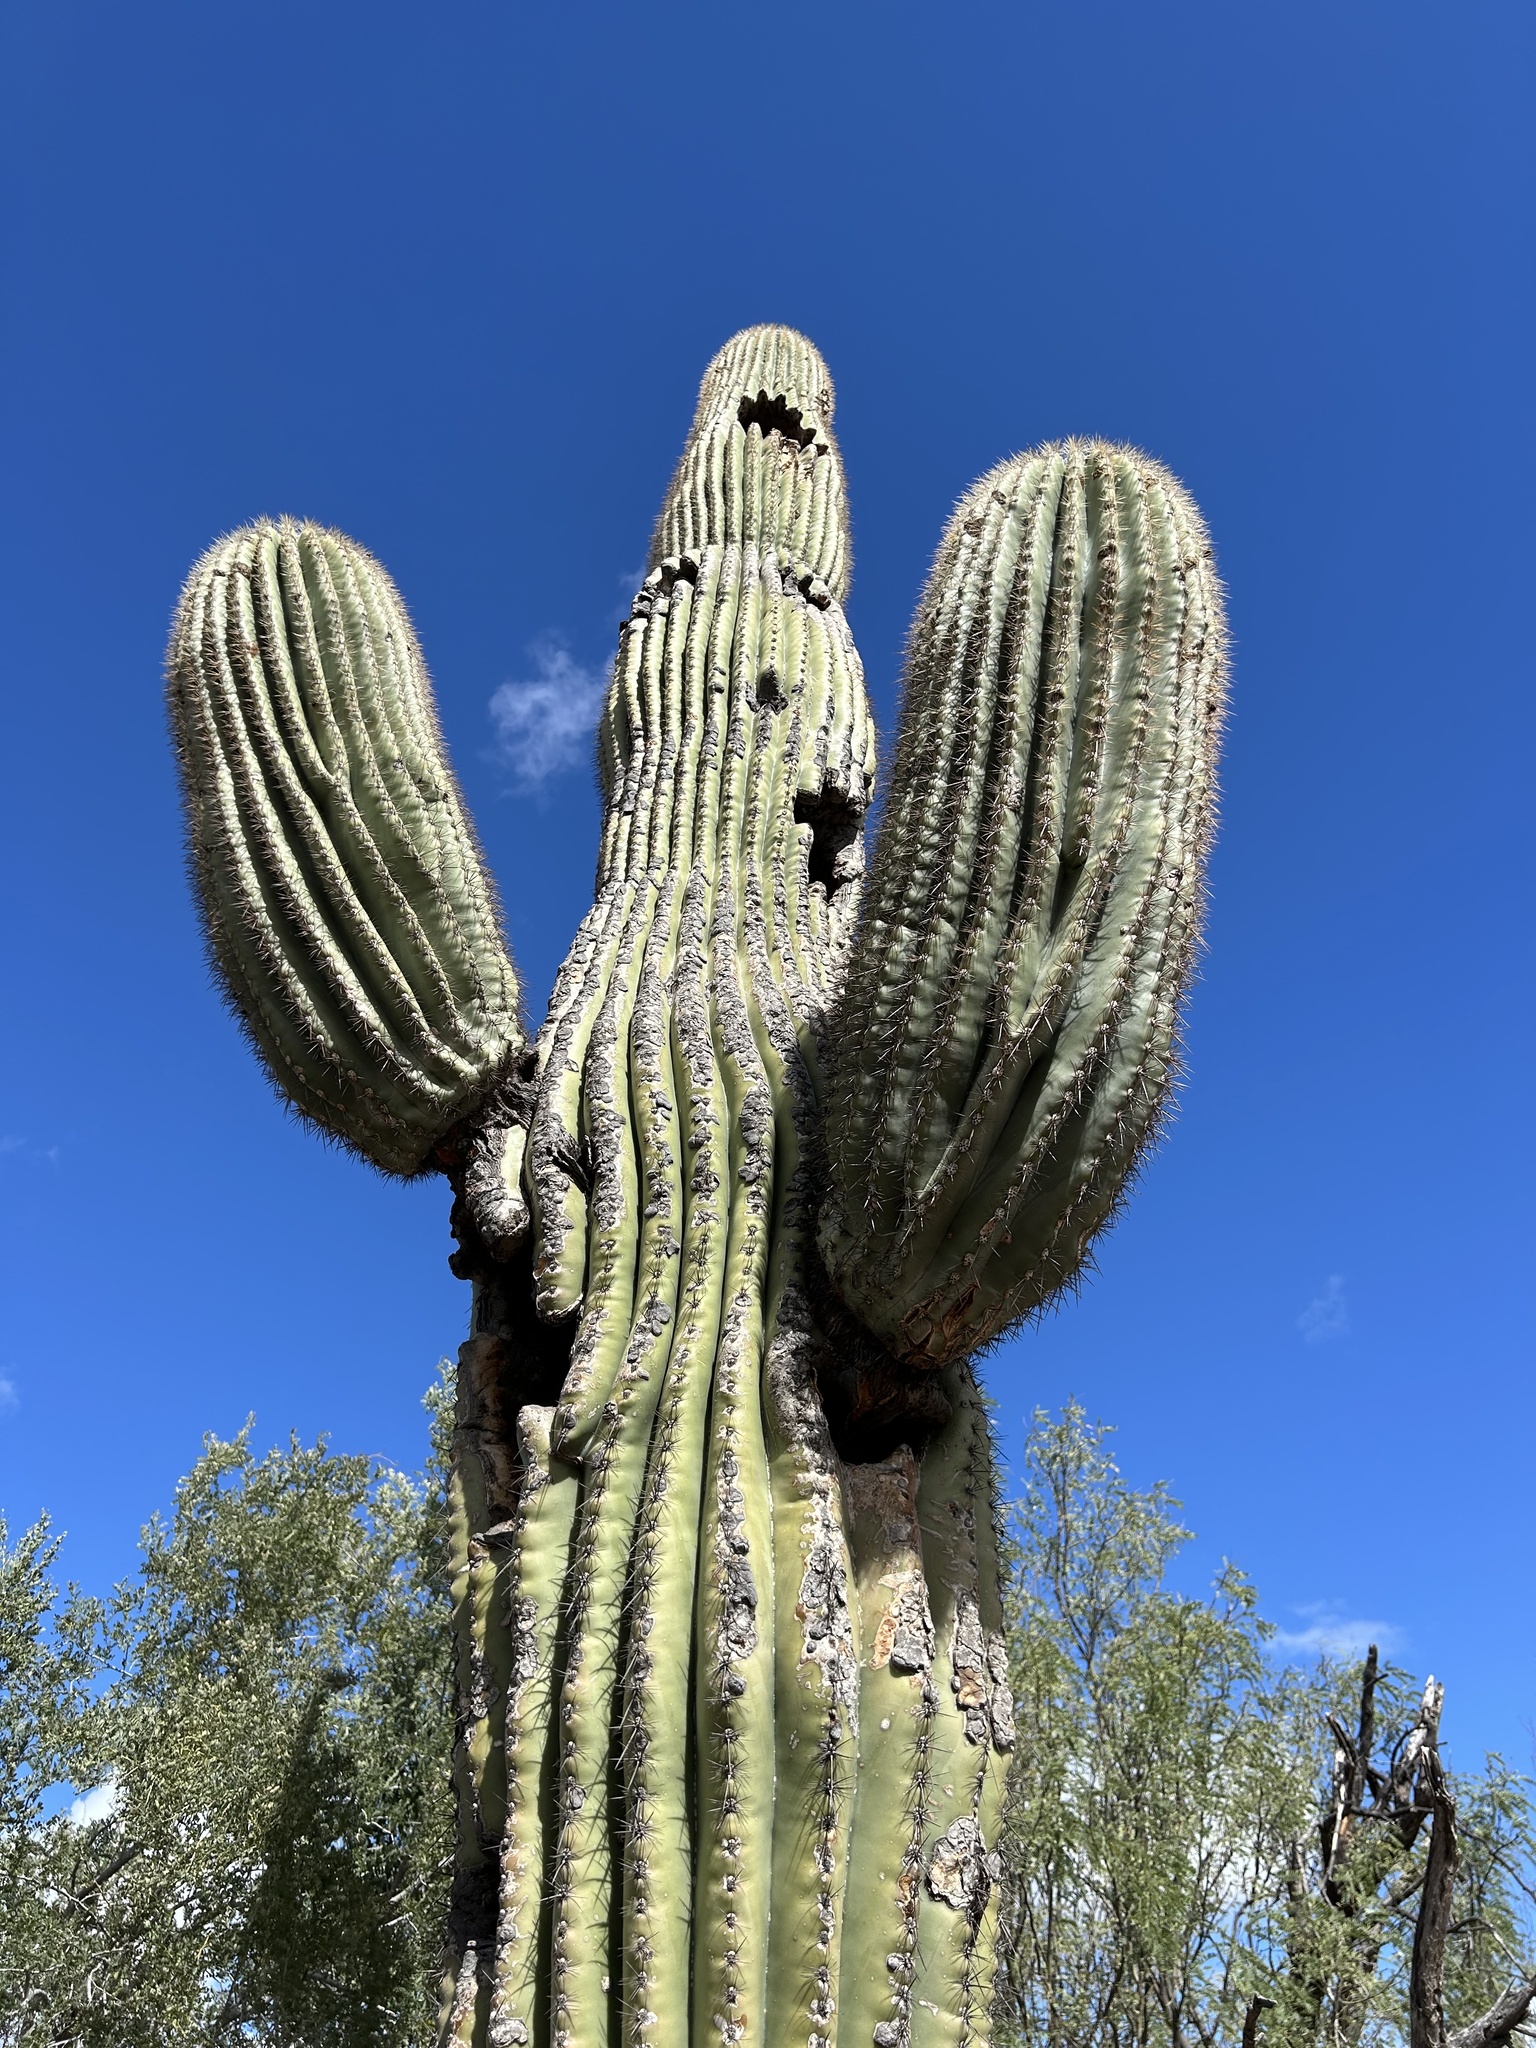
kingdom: Plantae
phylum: Tracheophyta
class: Magnoliopsida
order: Caryophyllales
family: Cactaceae
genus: Carnegiea
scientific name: Carnegiea gigantea
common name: Saguaro
